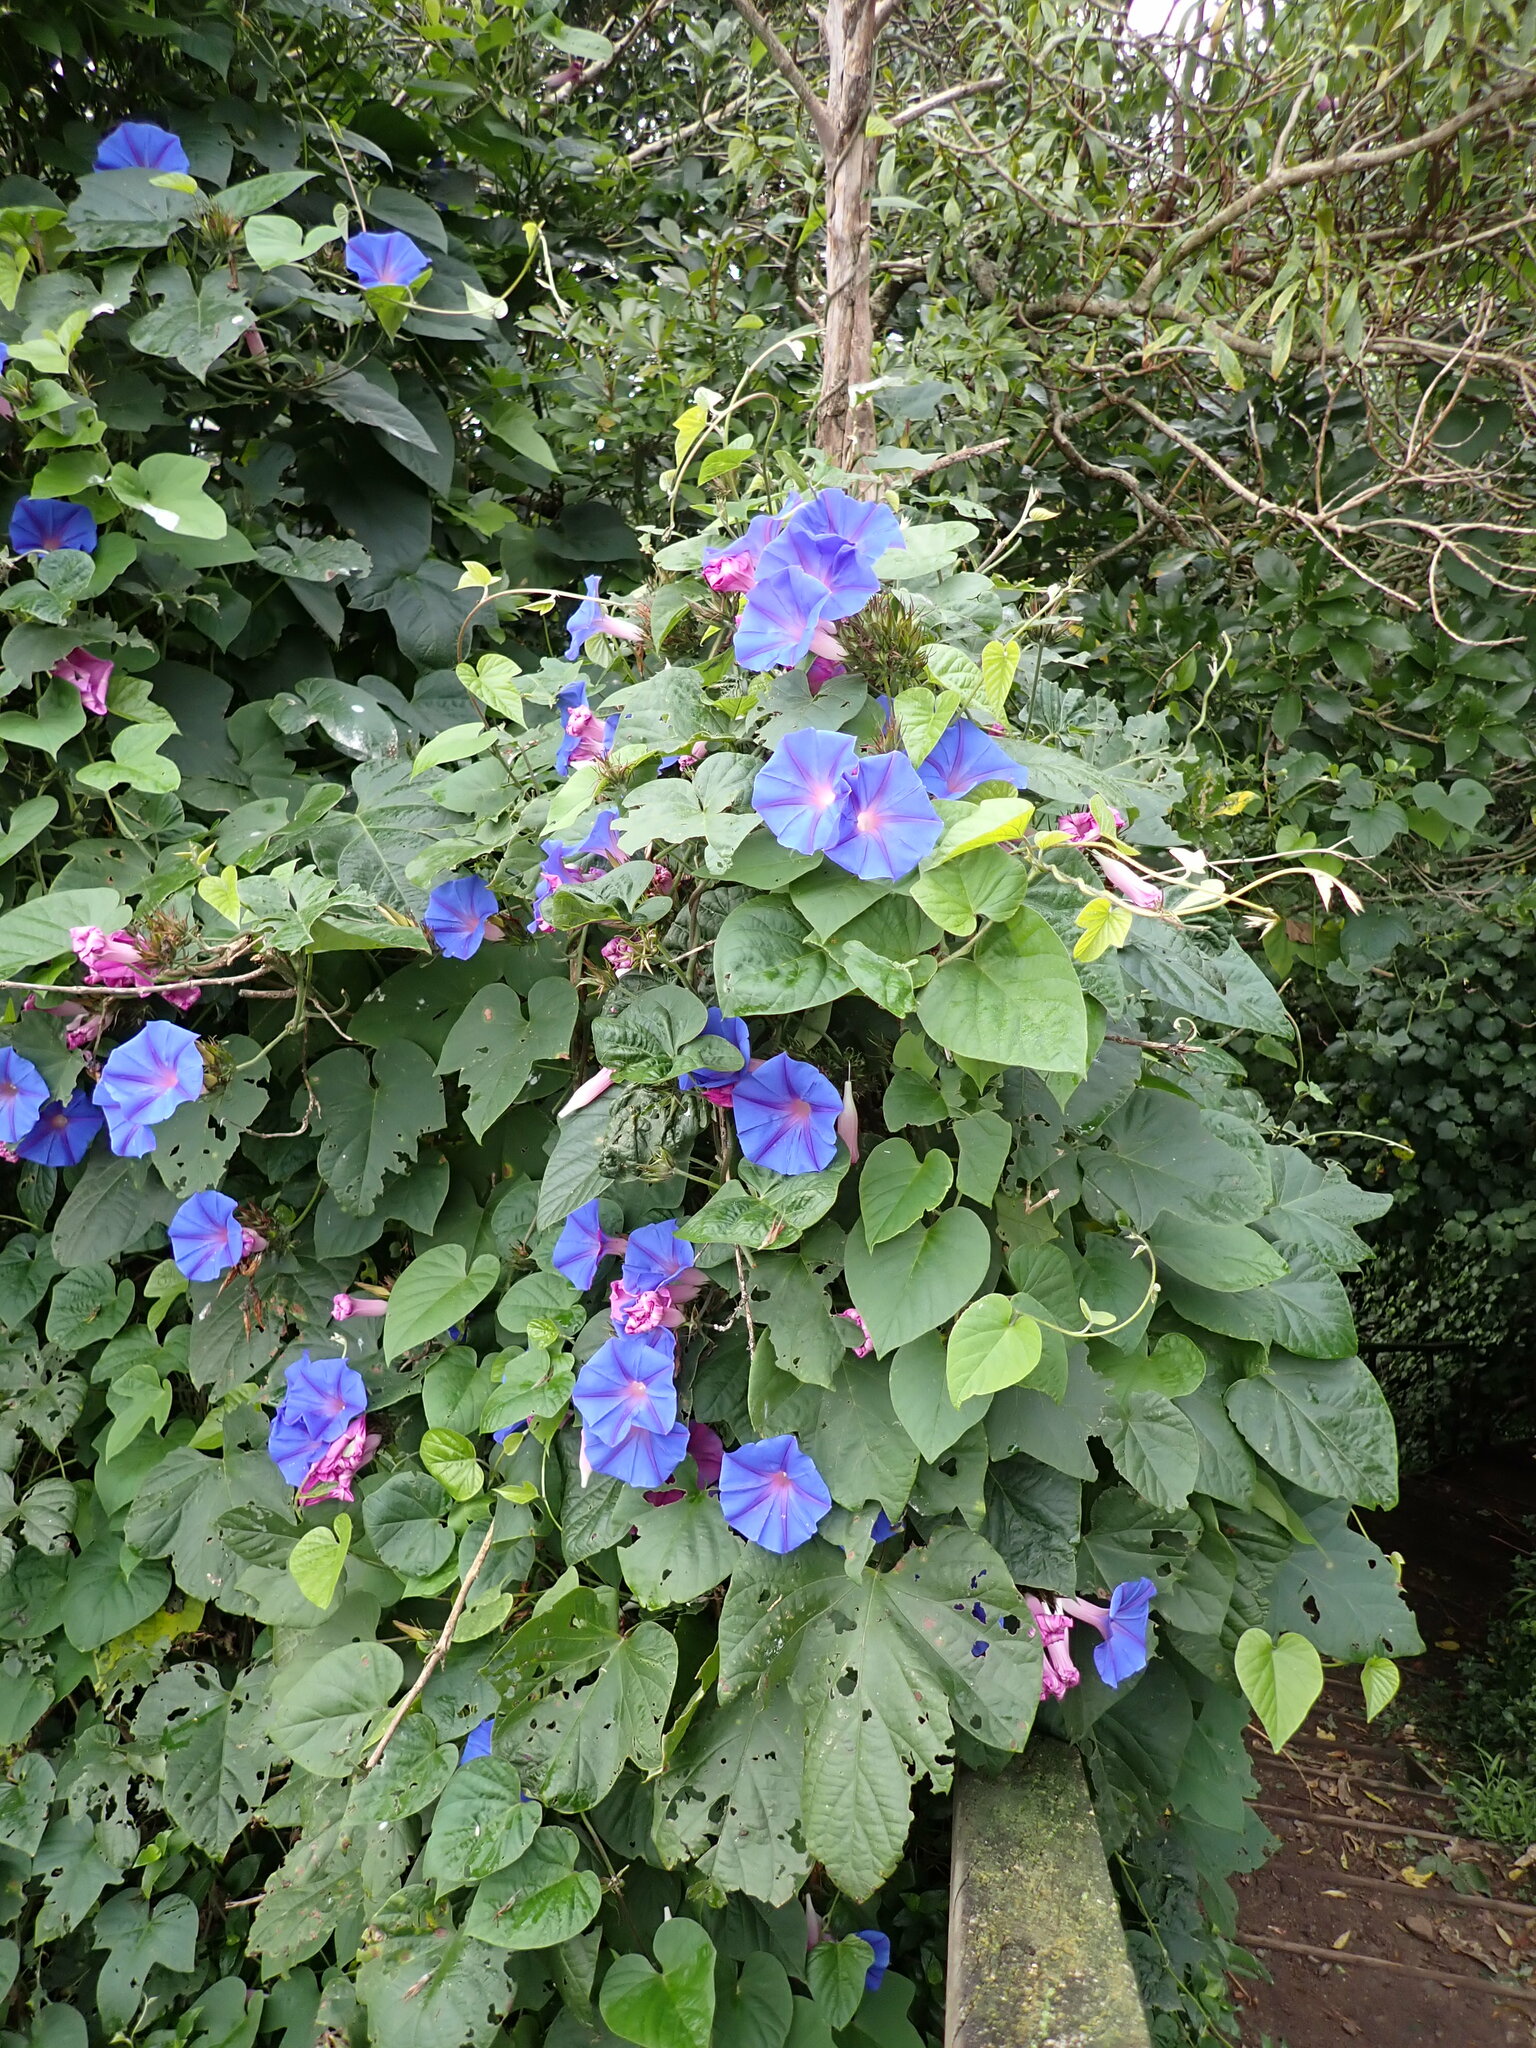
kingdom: Plantae
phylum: Tracheophyta
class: Magnoliopsida
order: Solanales
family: Convolvulaceae
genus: Ipomoea
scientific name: Ipomoea indica
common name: Blue dawnflower
